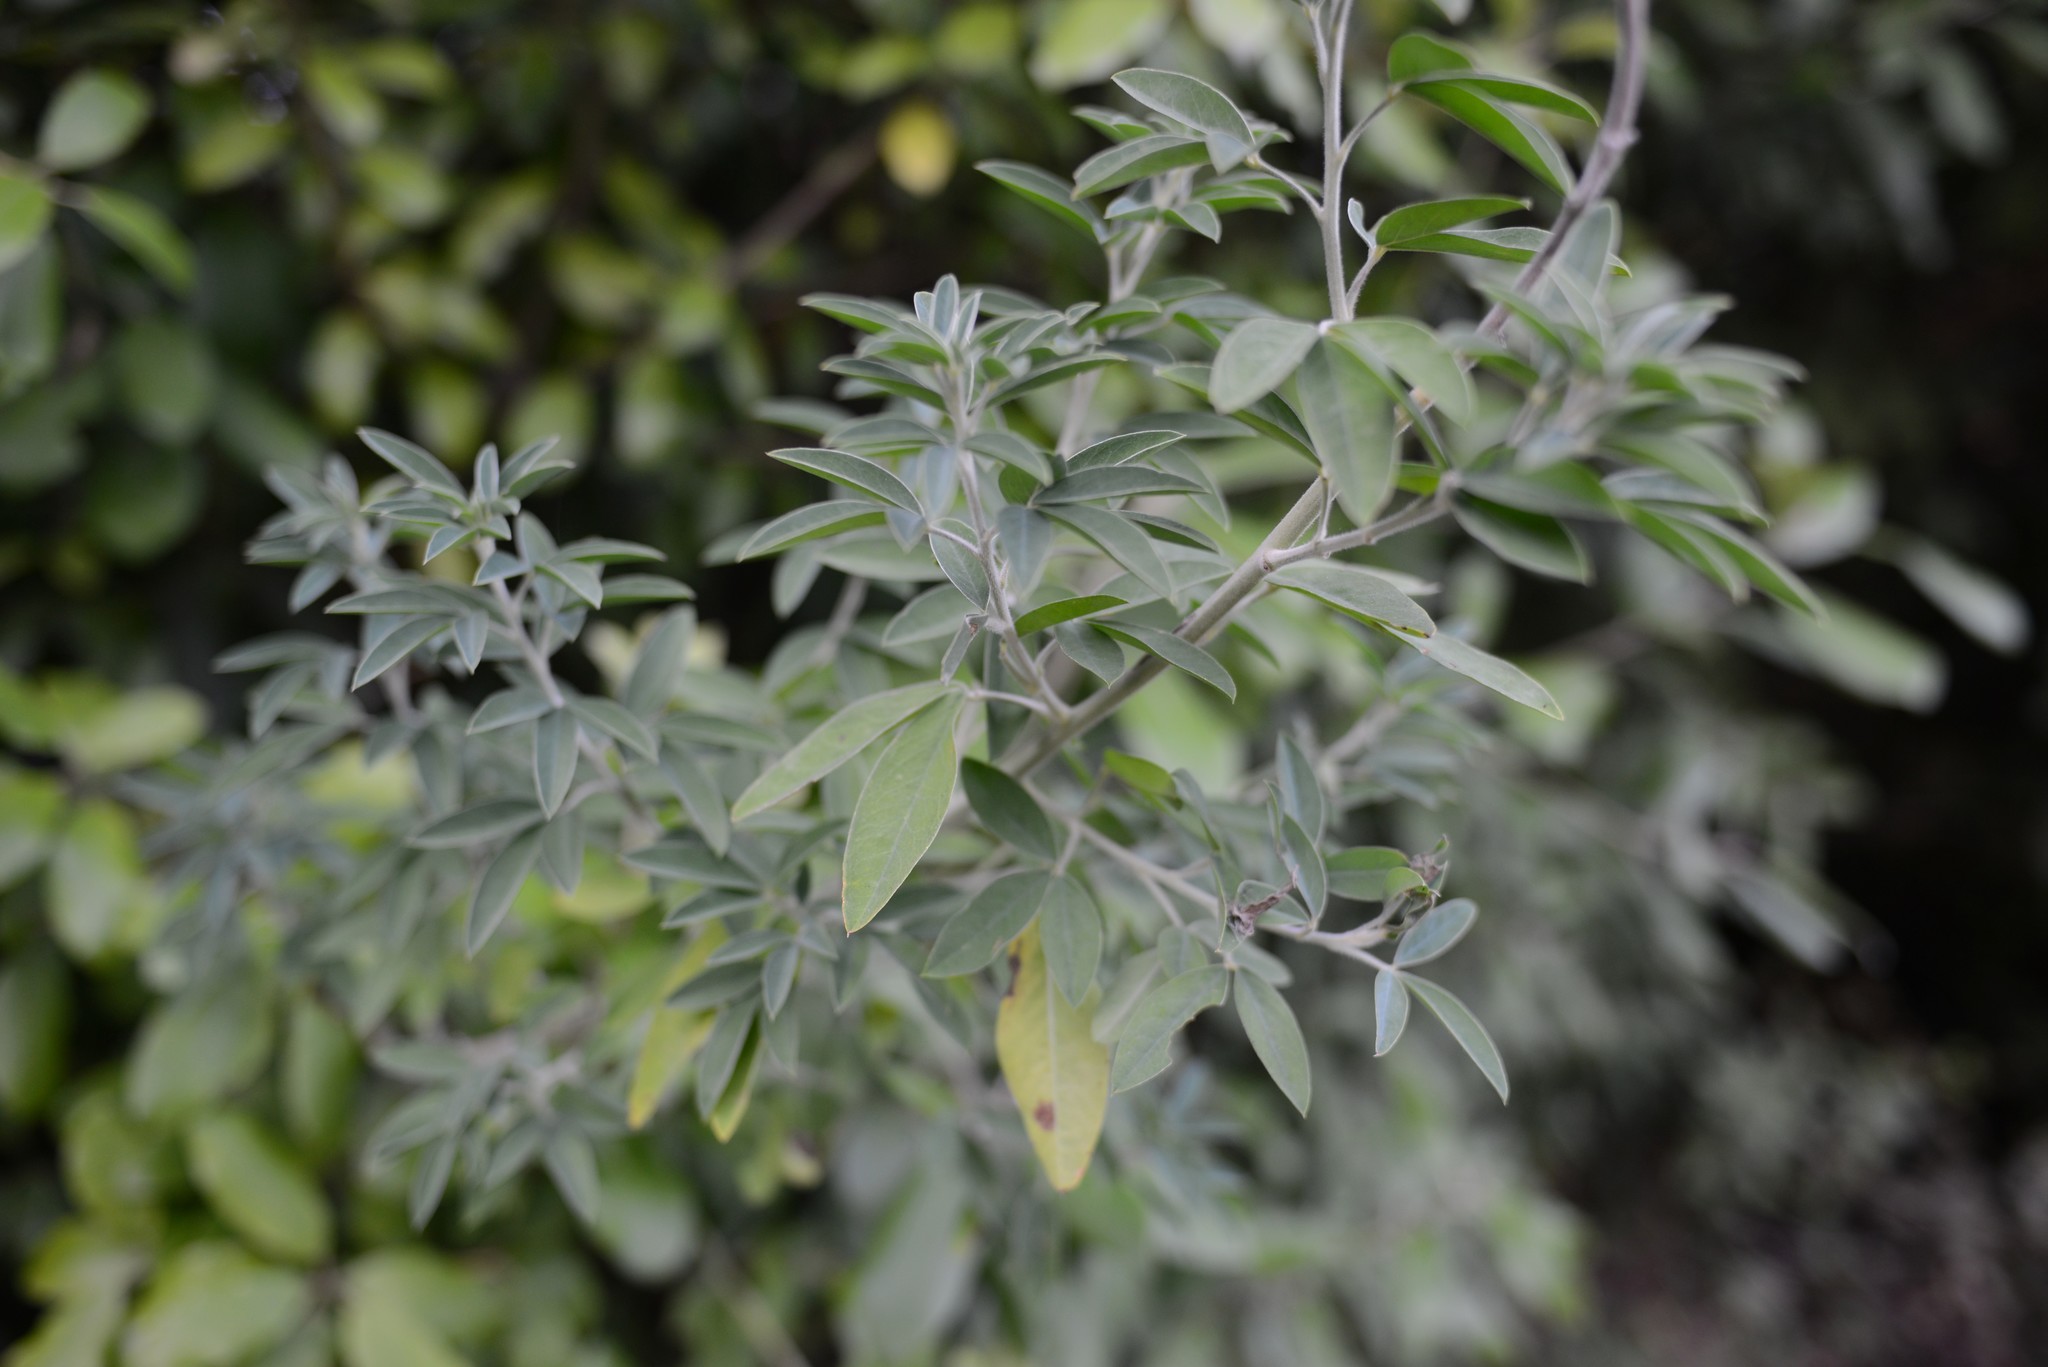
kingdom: Plantae
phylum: Tracheophyta
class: Magnoliopsida
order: Fabales
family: Fabaceae
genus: Chamaecytisus
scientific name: Chamaecytisus prolifer
